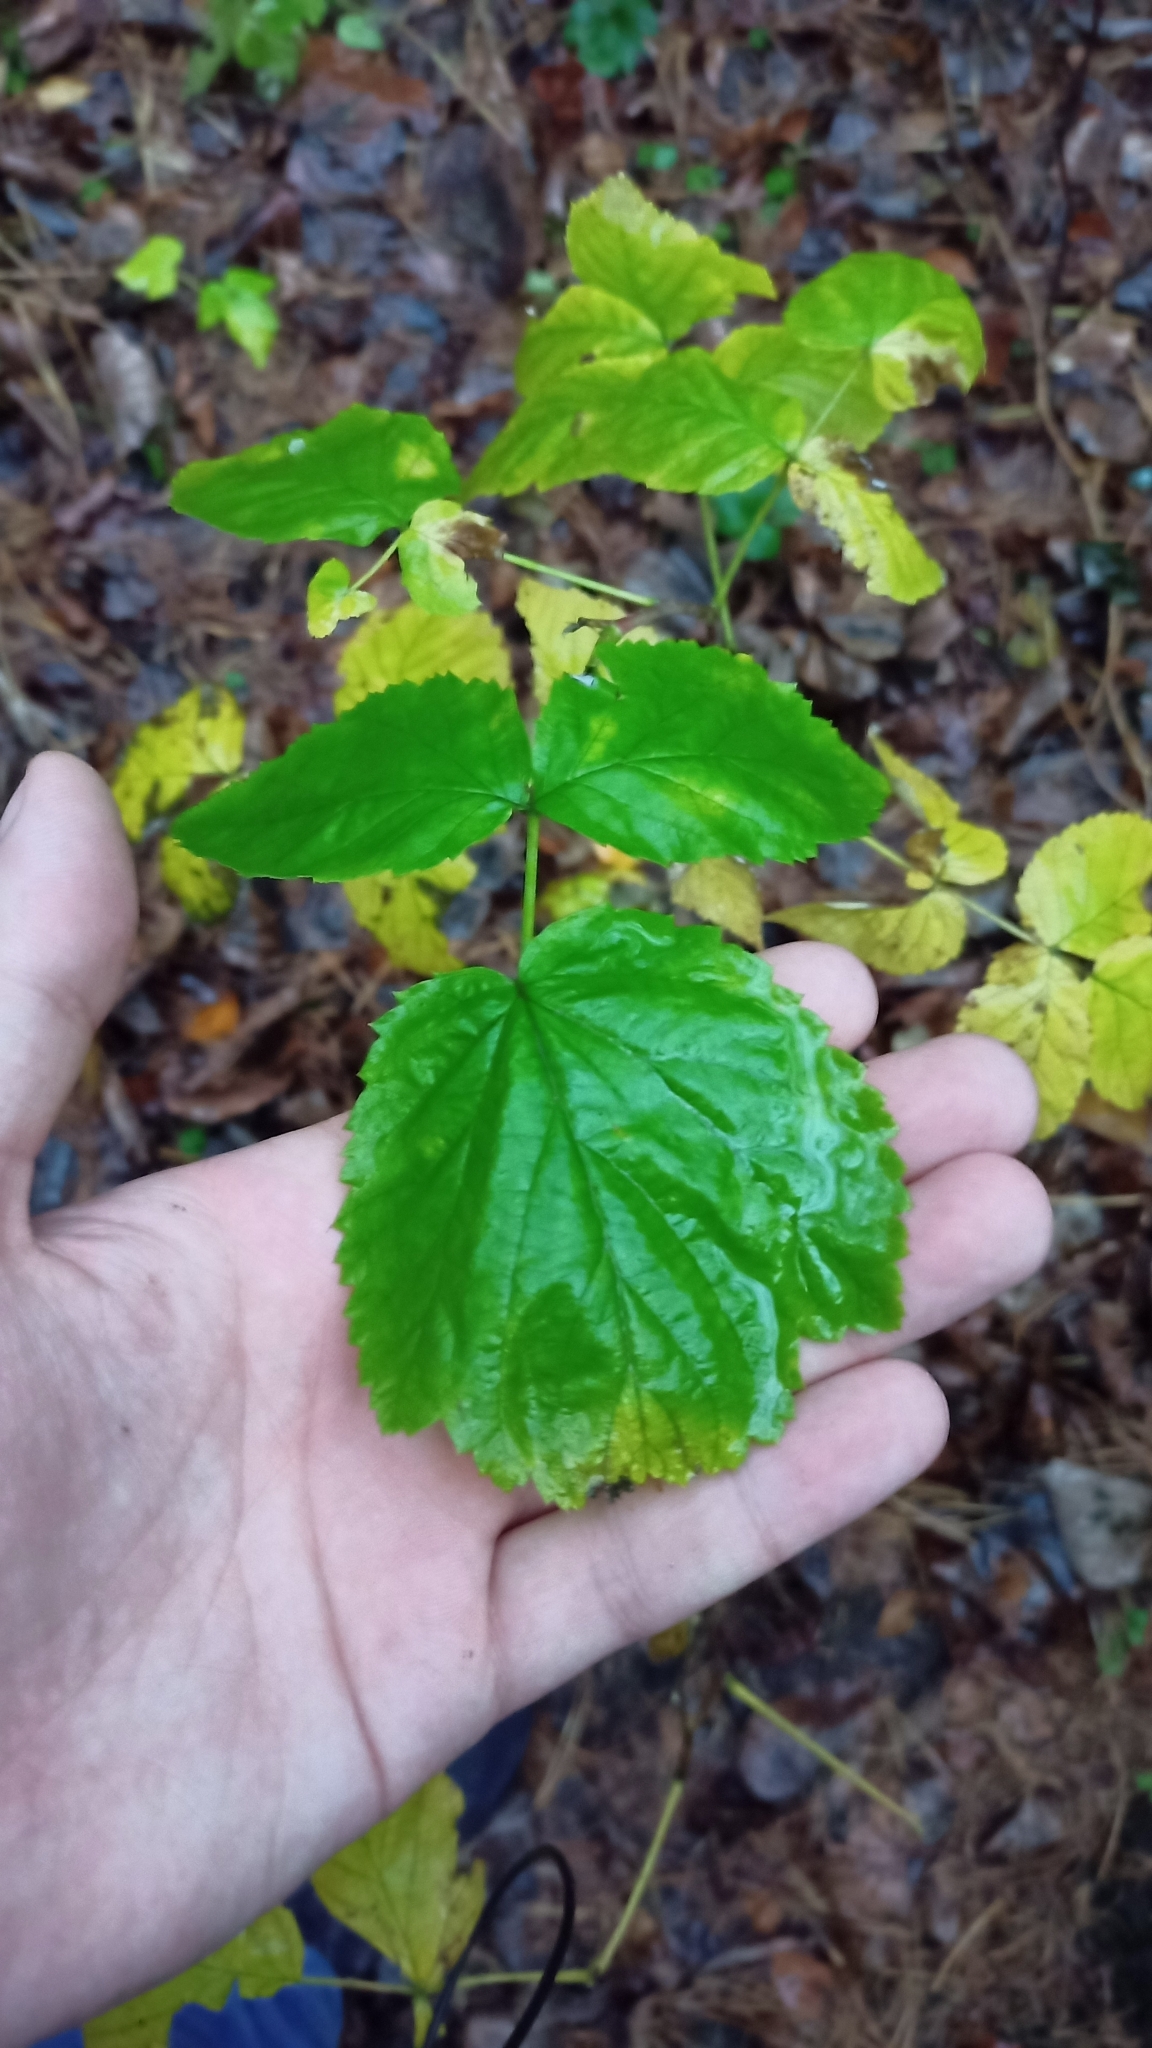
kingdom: Plantae
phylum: Tracheophyta
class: Magnoliopsida
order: Rosales
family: Rosaceae
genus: Rubus
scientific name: Rubus idaeus
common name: Raspberry
